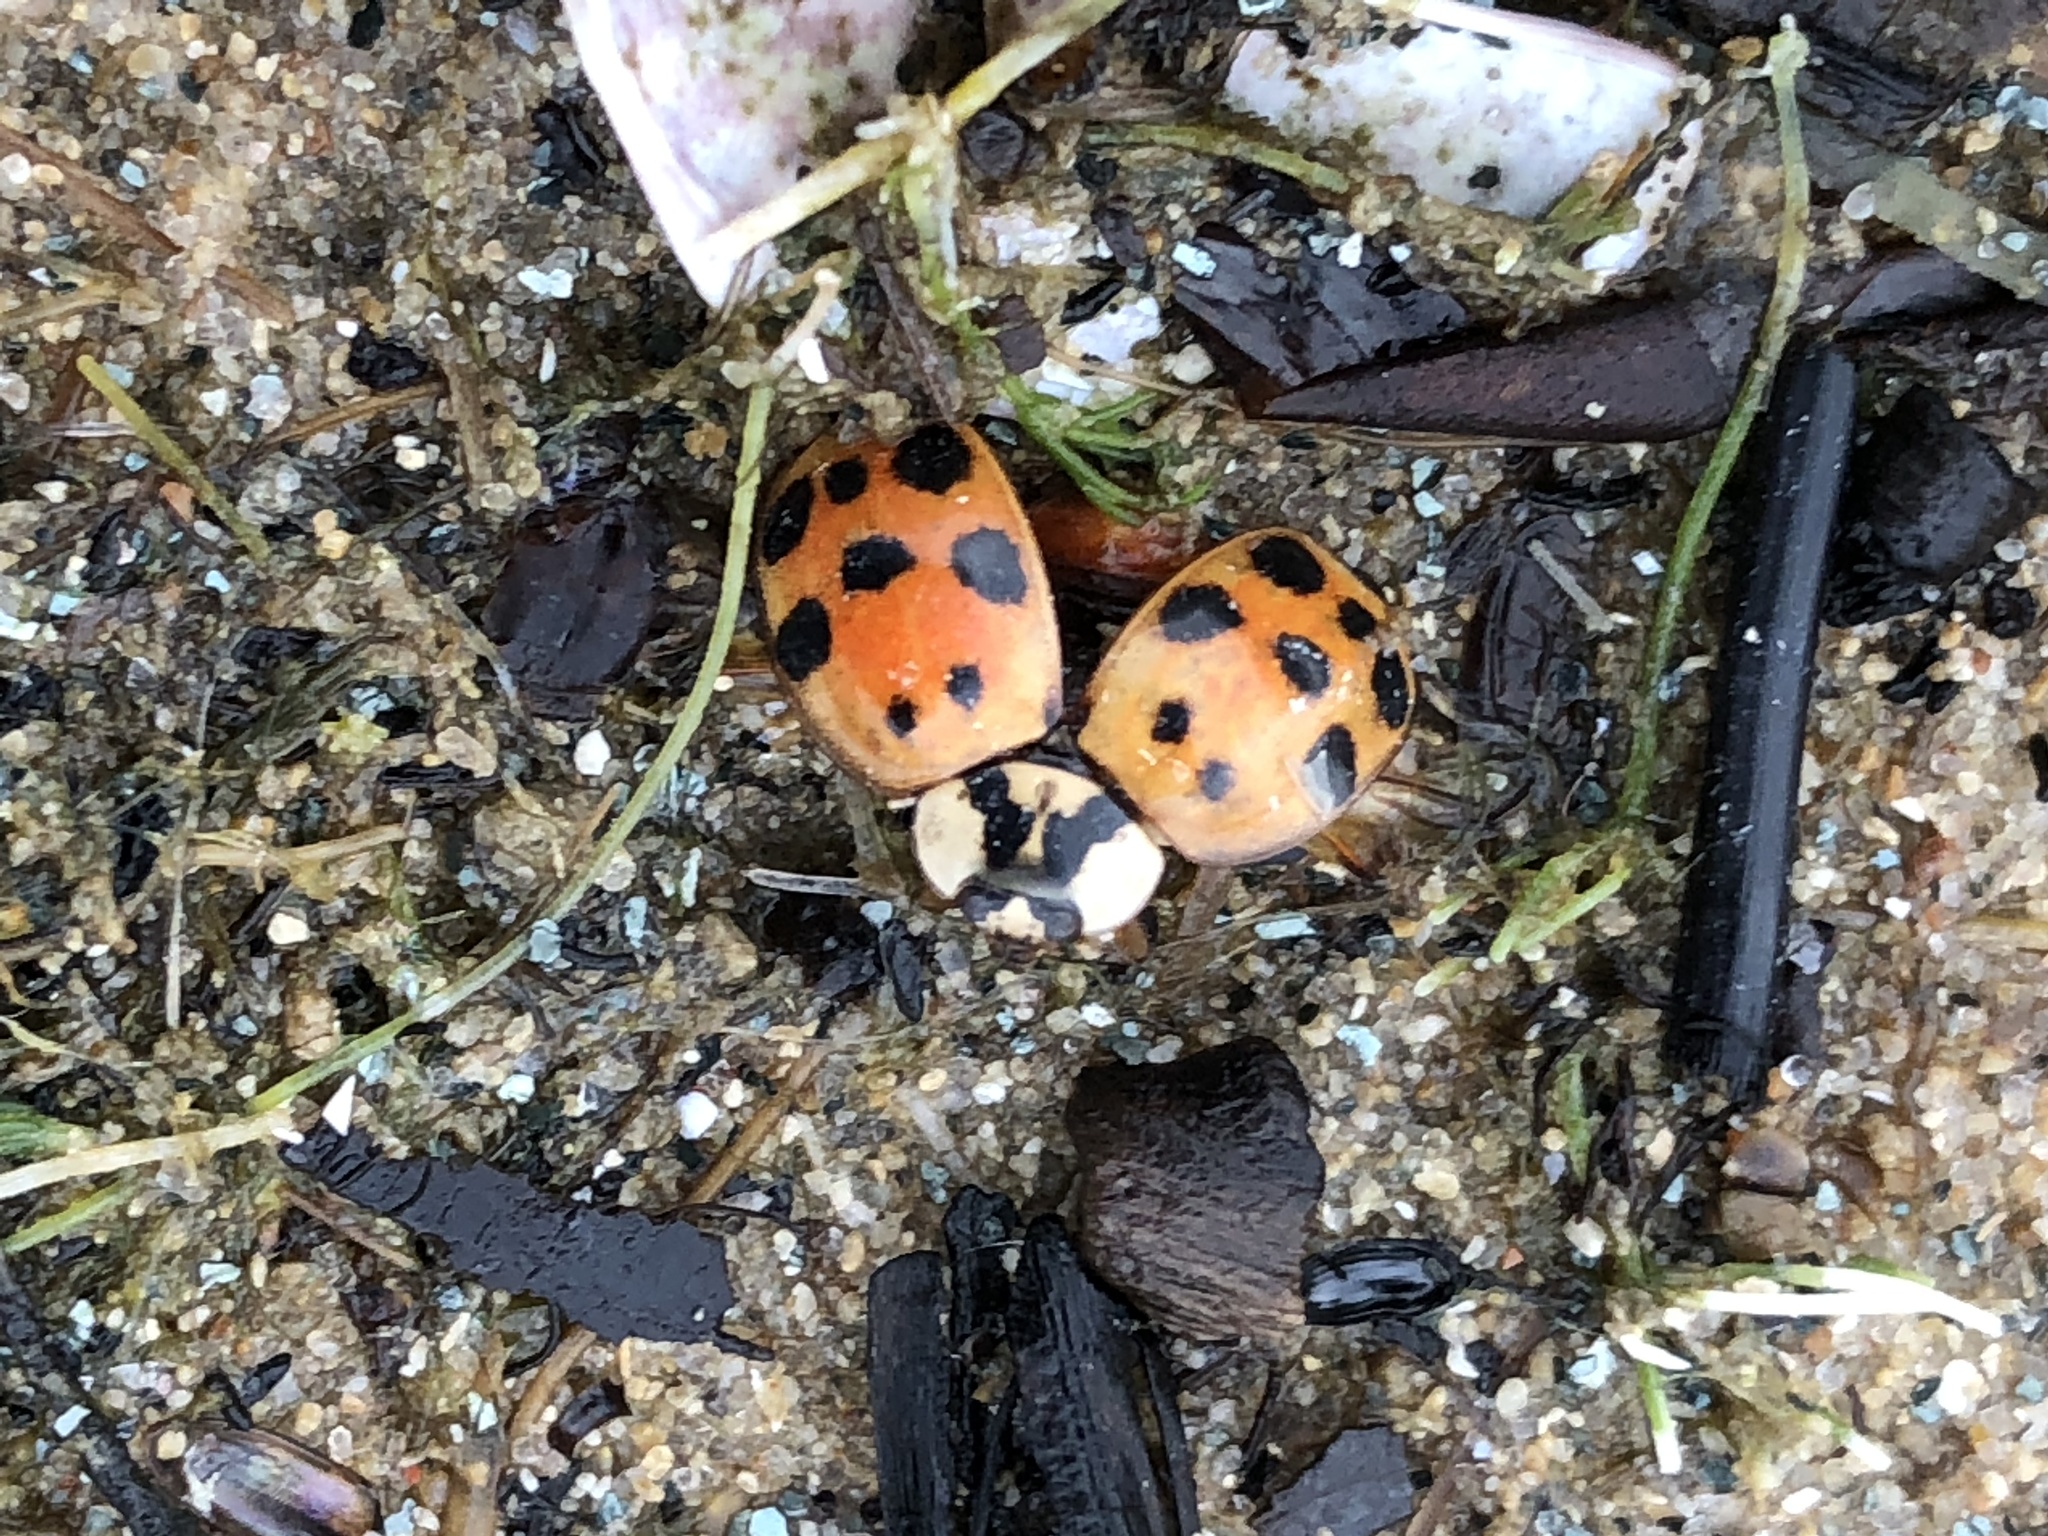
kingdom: Animalia
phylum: Arthropoda
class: Insecta
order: Coleoptera
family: Coccinellidae
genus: Harmonia
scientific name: Harmonia axyridis
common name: Harlequin ladybird
